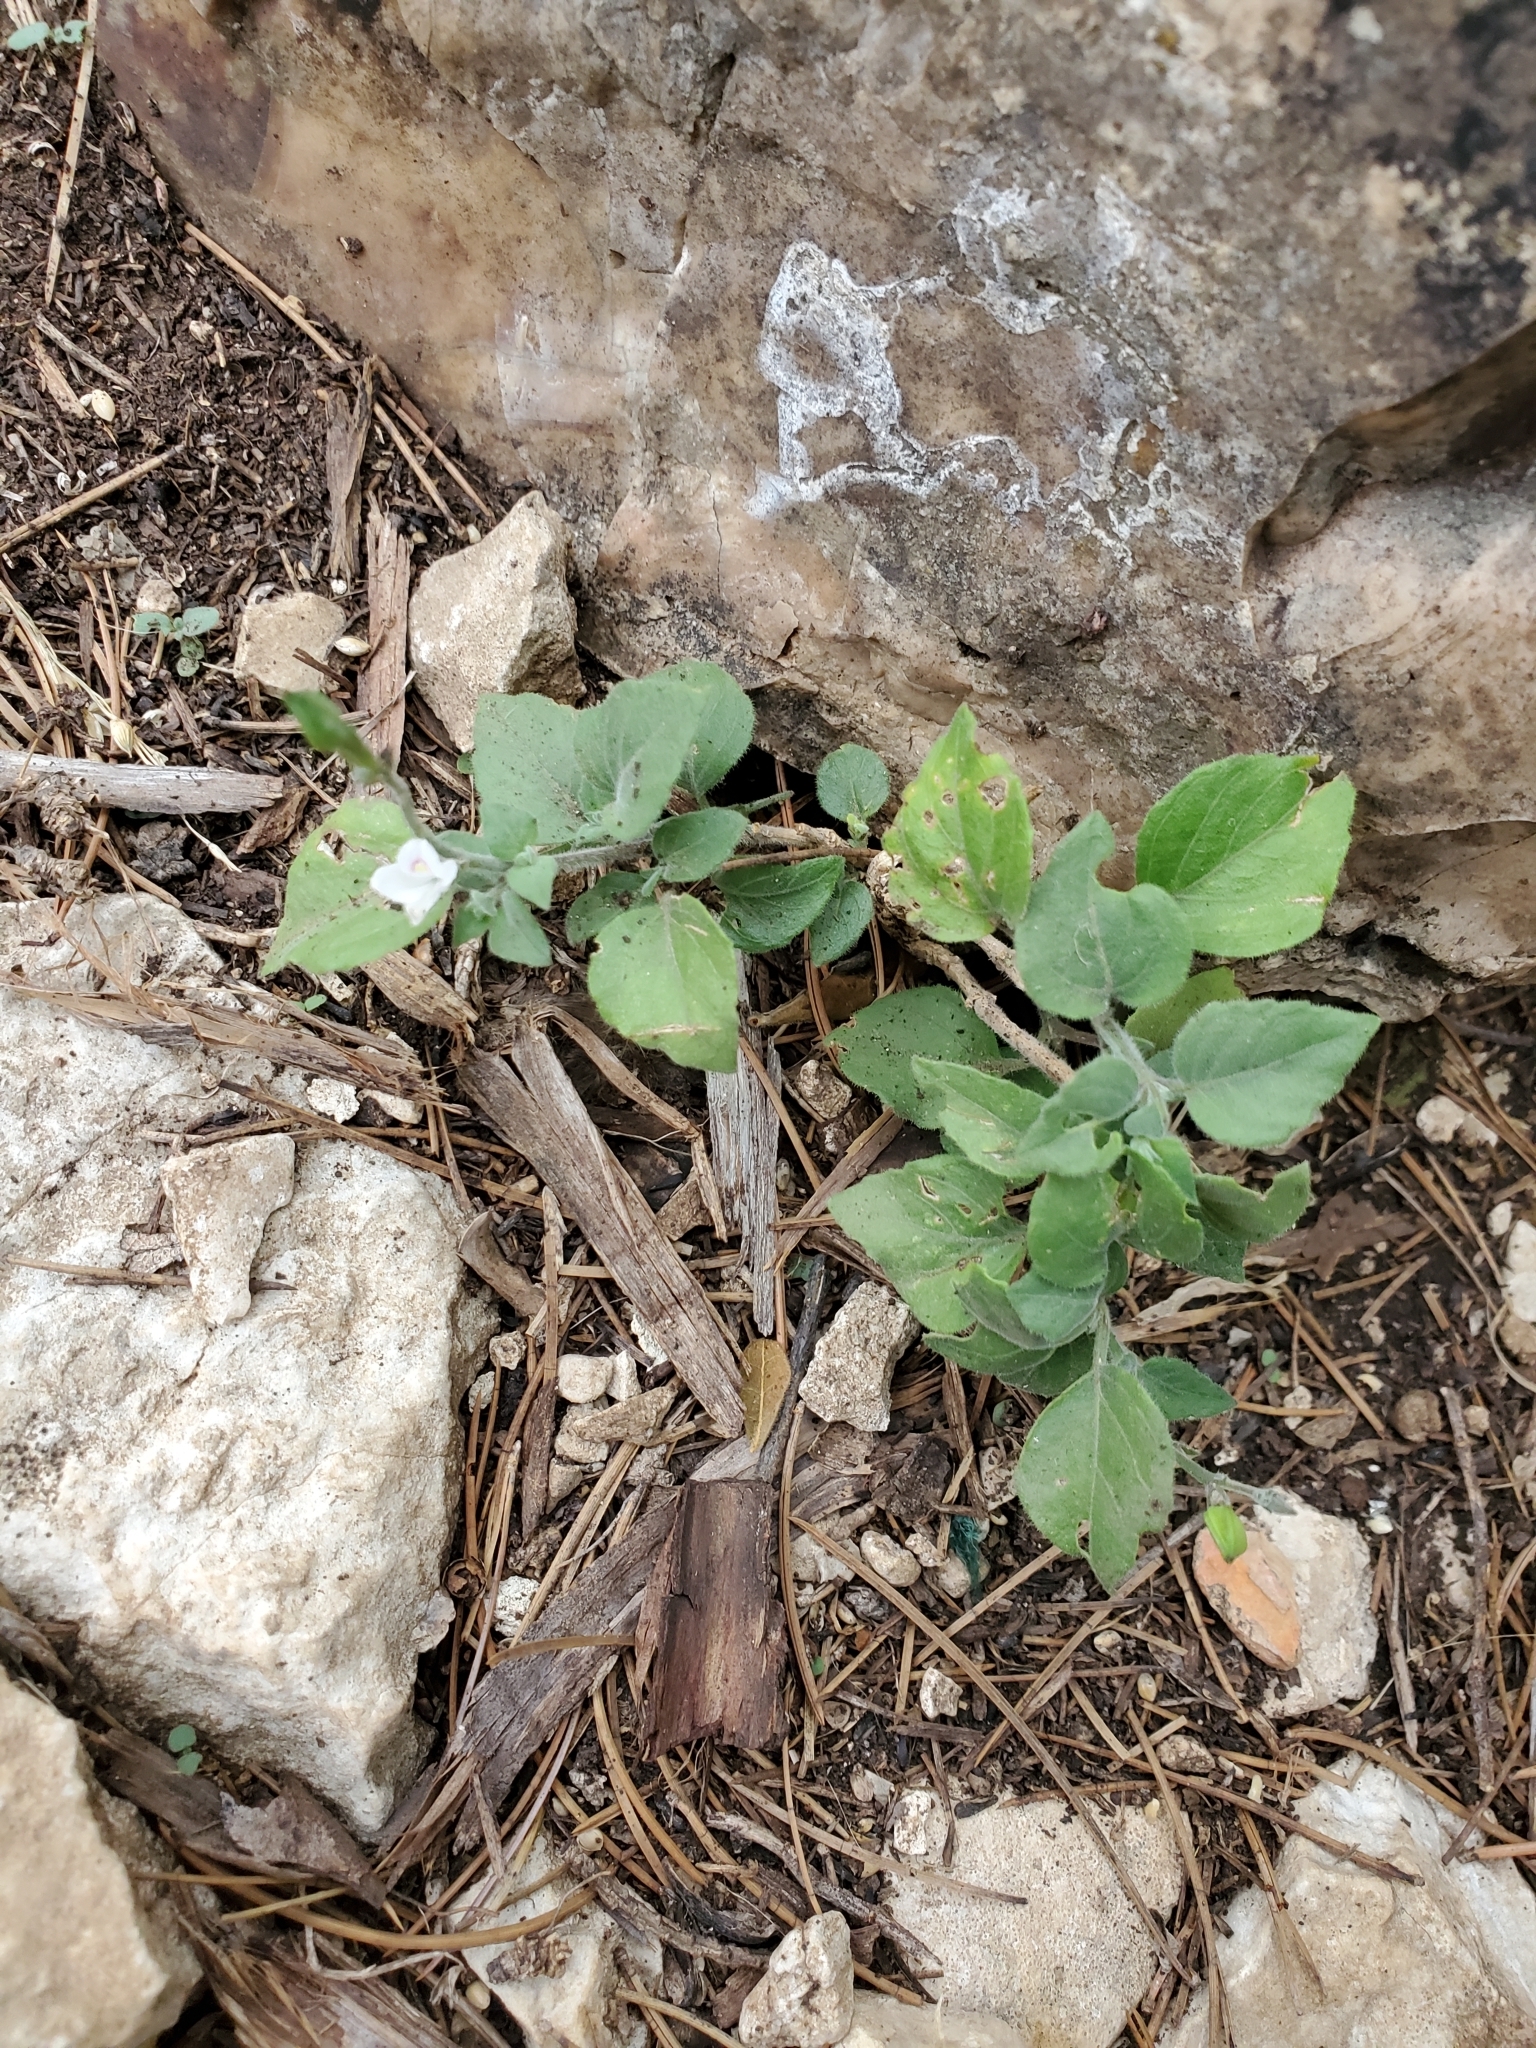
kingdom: Plantae
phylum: Tracheophyta
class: Magnoliopsida
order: Lamiales
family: Acanthaceae
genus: Carlowrightia
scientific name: Carlowrightia torreyana
